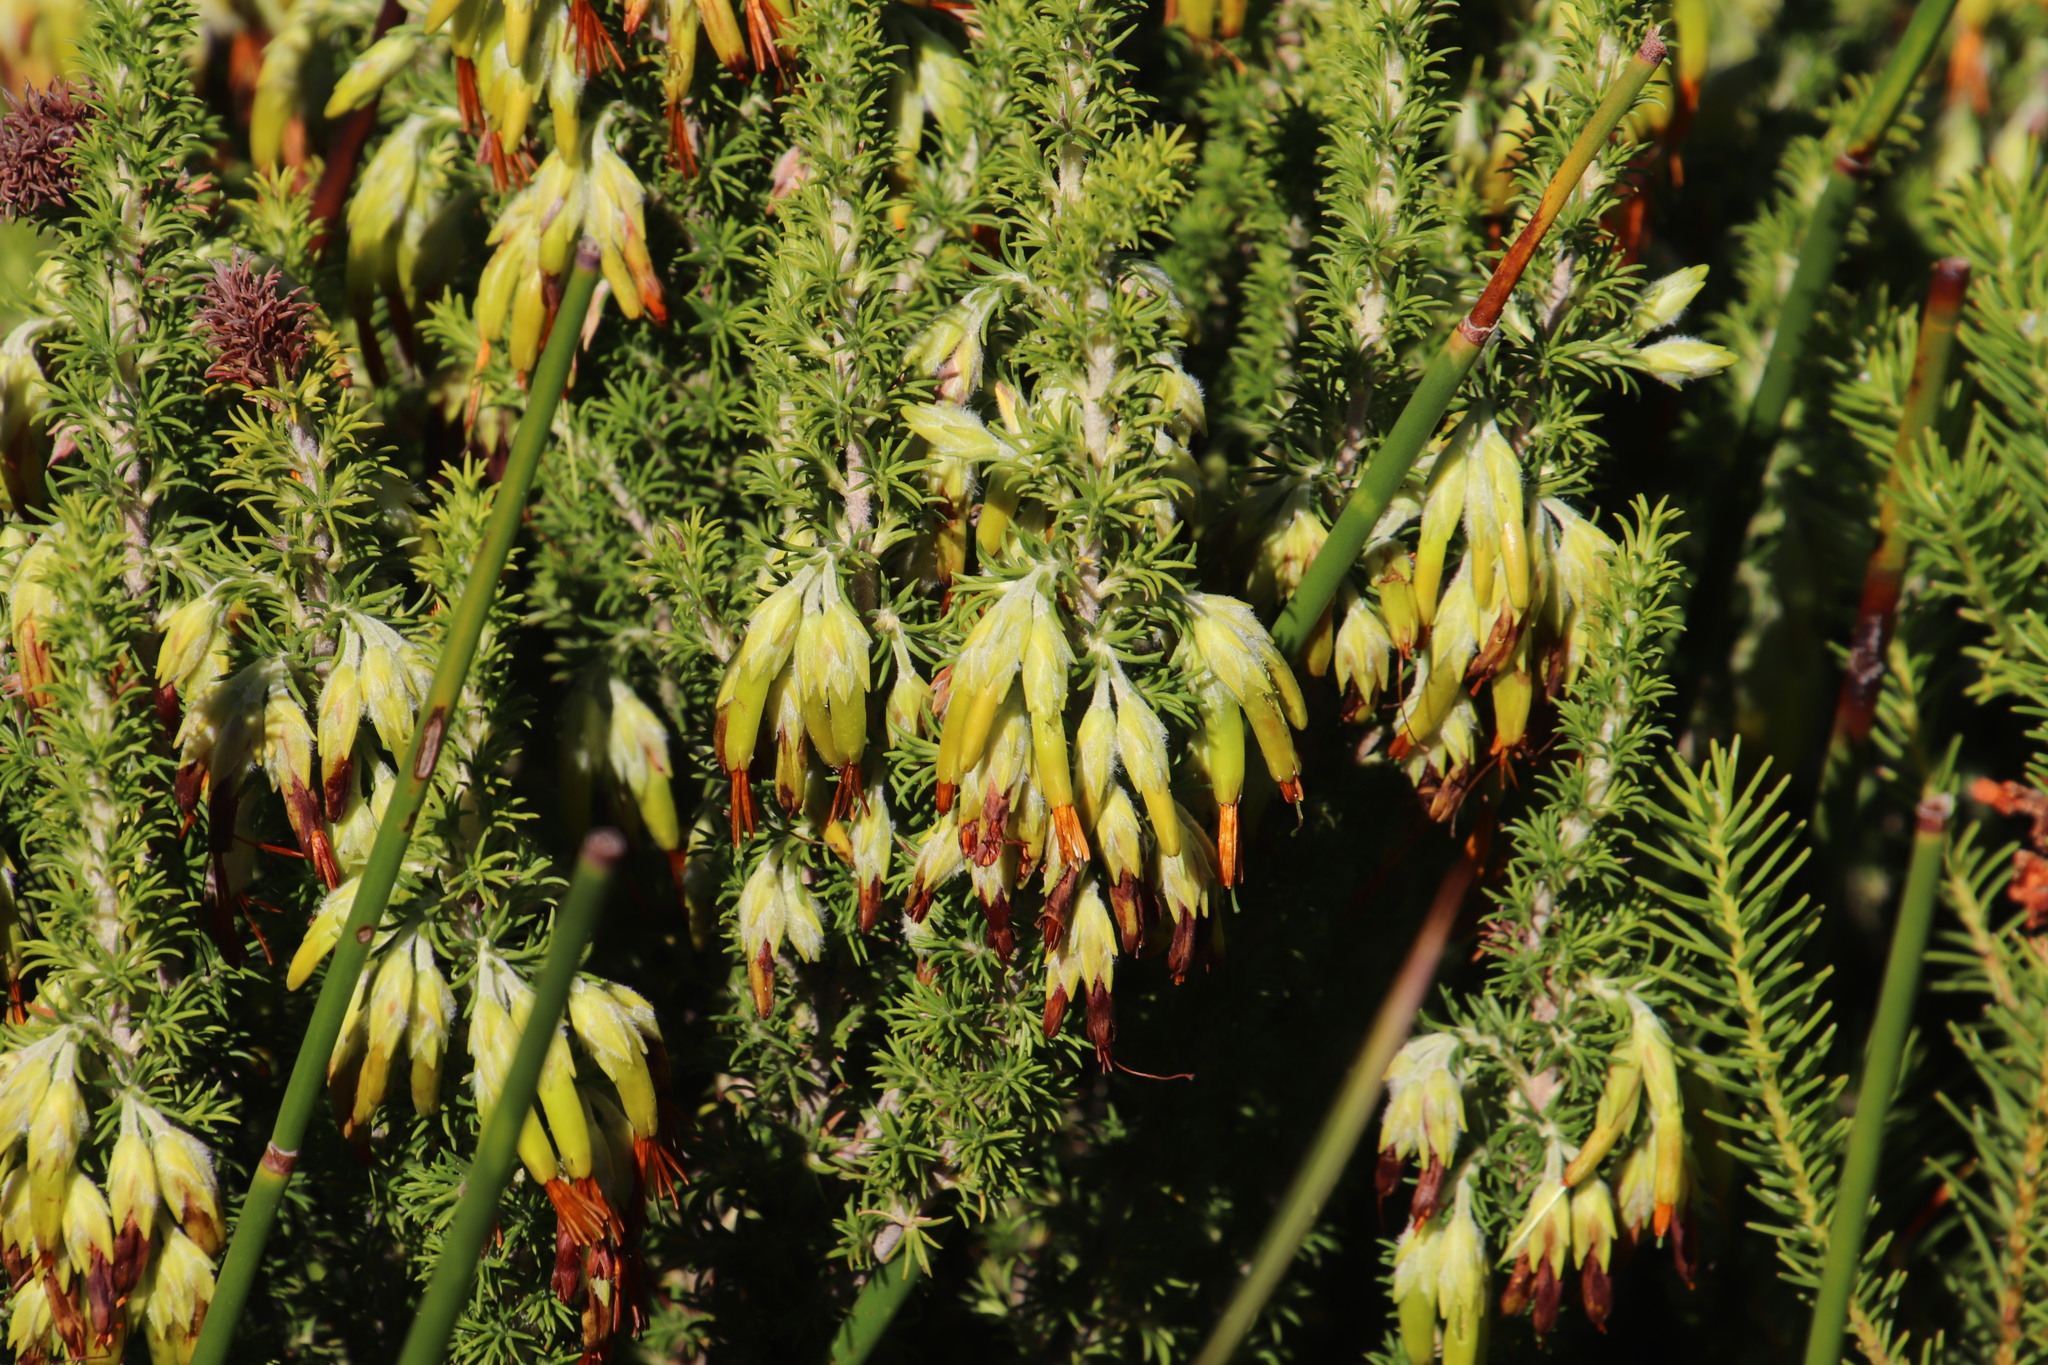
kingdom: Plantae
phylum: Tracheophyta
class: Magnoliopsida
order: Ericales
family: Ericaceae
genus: Erica
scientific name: Erica coccinea
